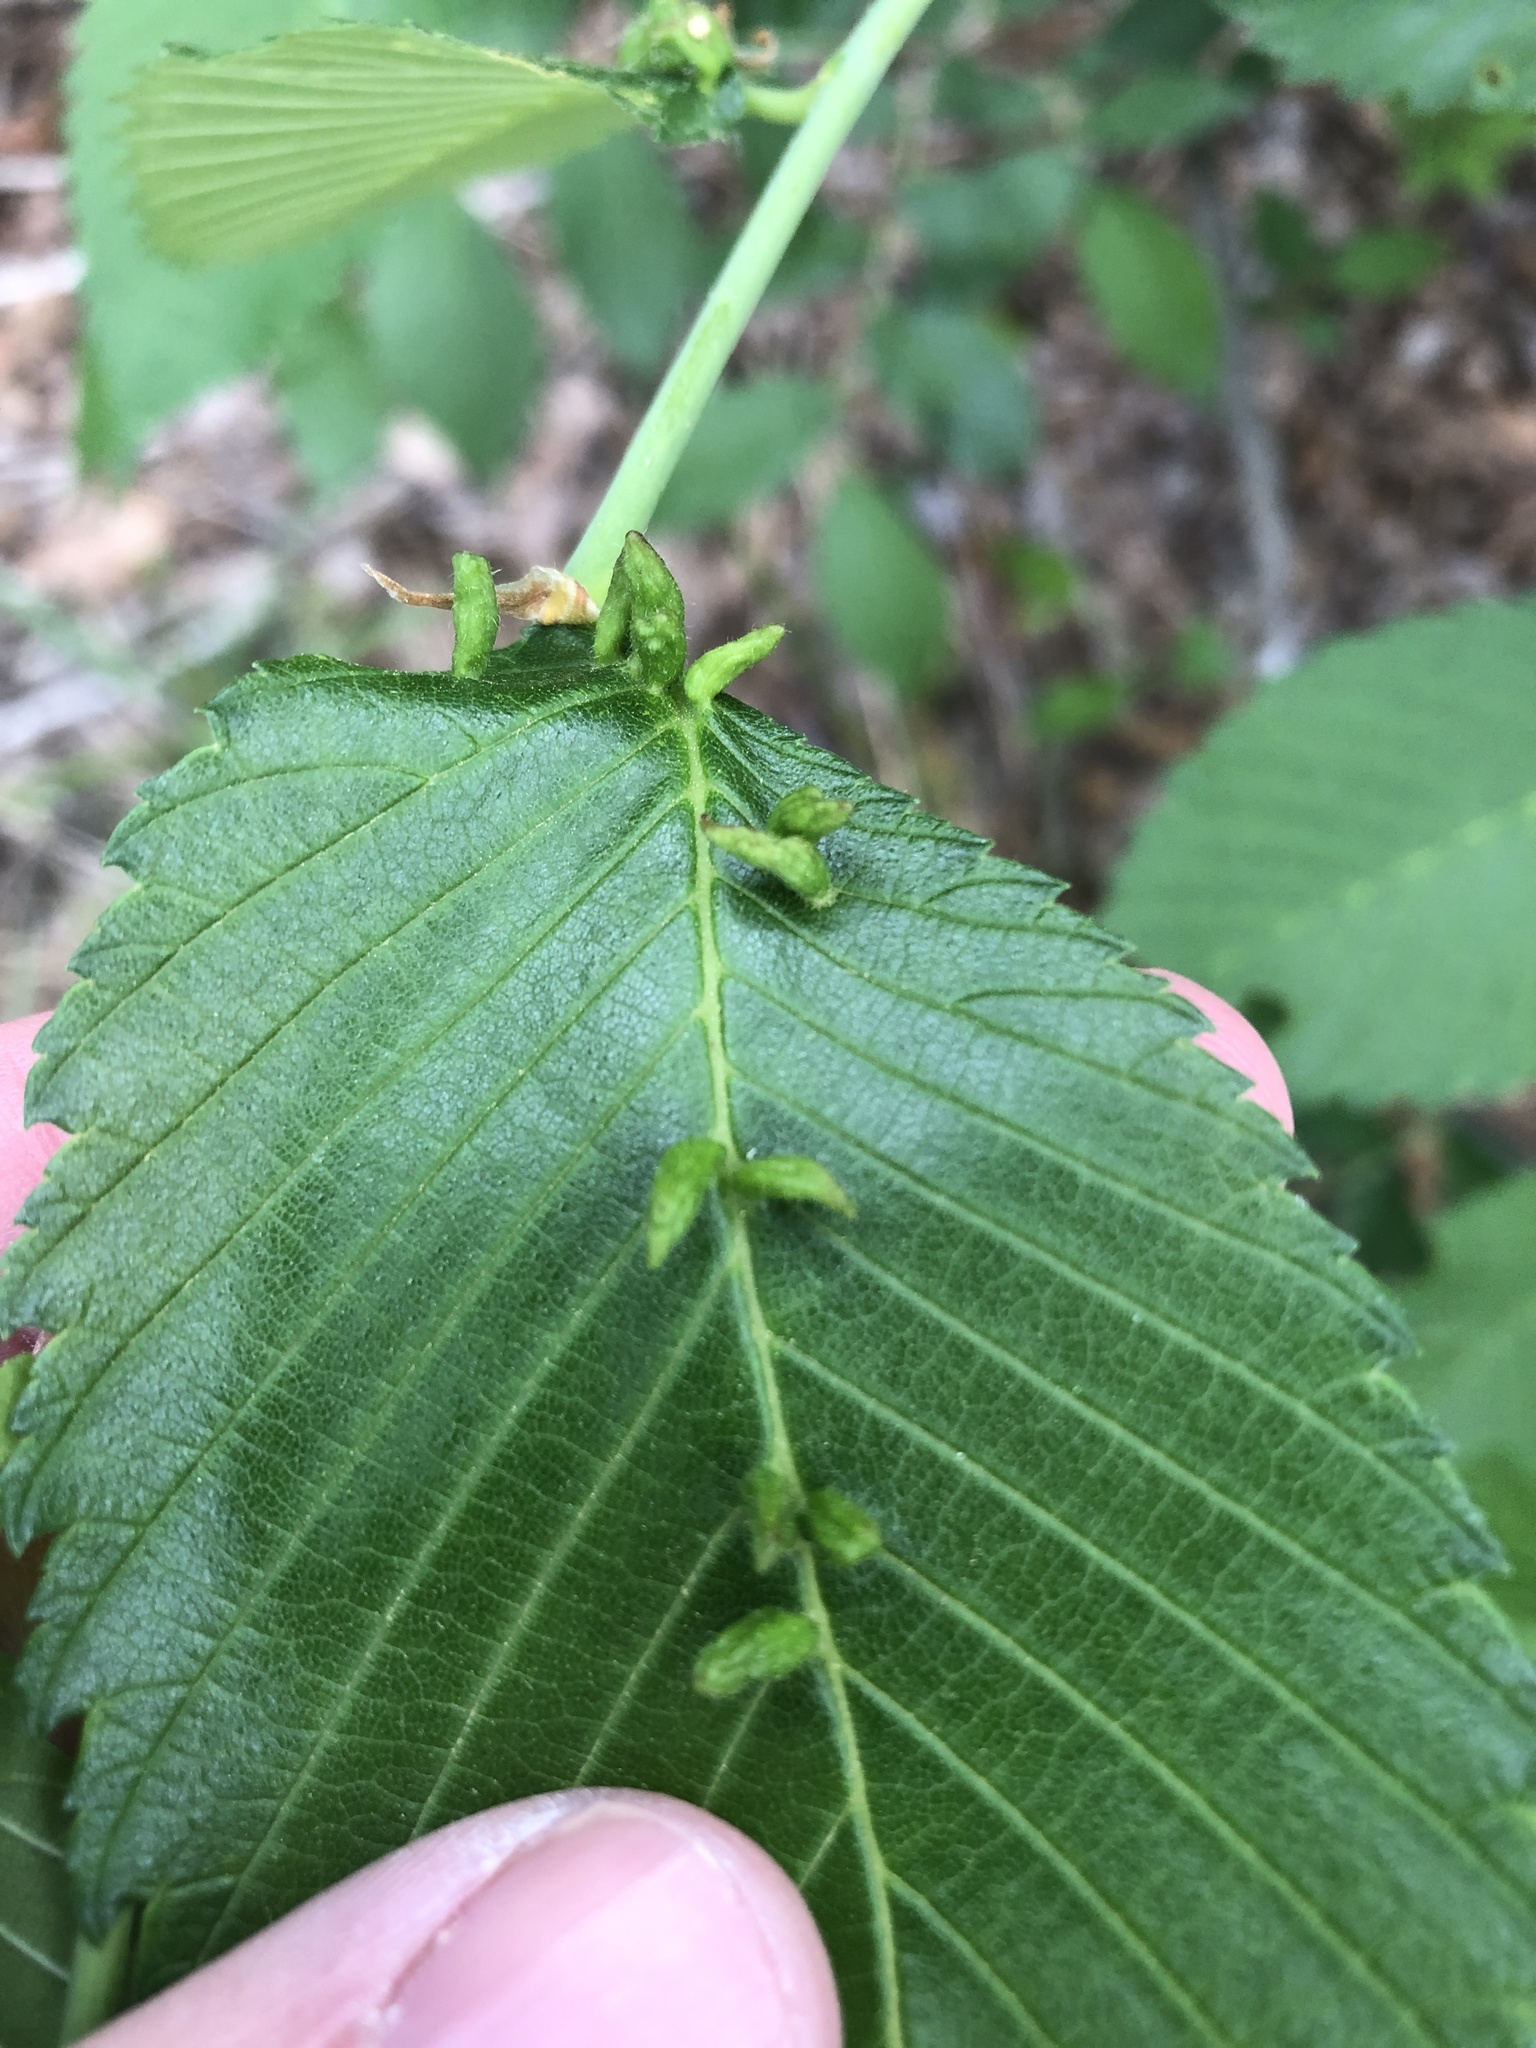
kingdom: Animalia
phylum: Arthropoda
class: Arachnida
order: Trombidiformes
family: Eriophyidae
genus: Aceria
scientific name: Aceria
